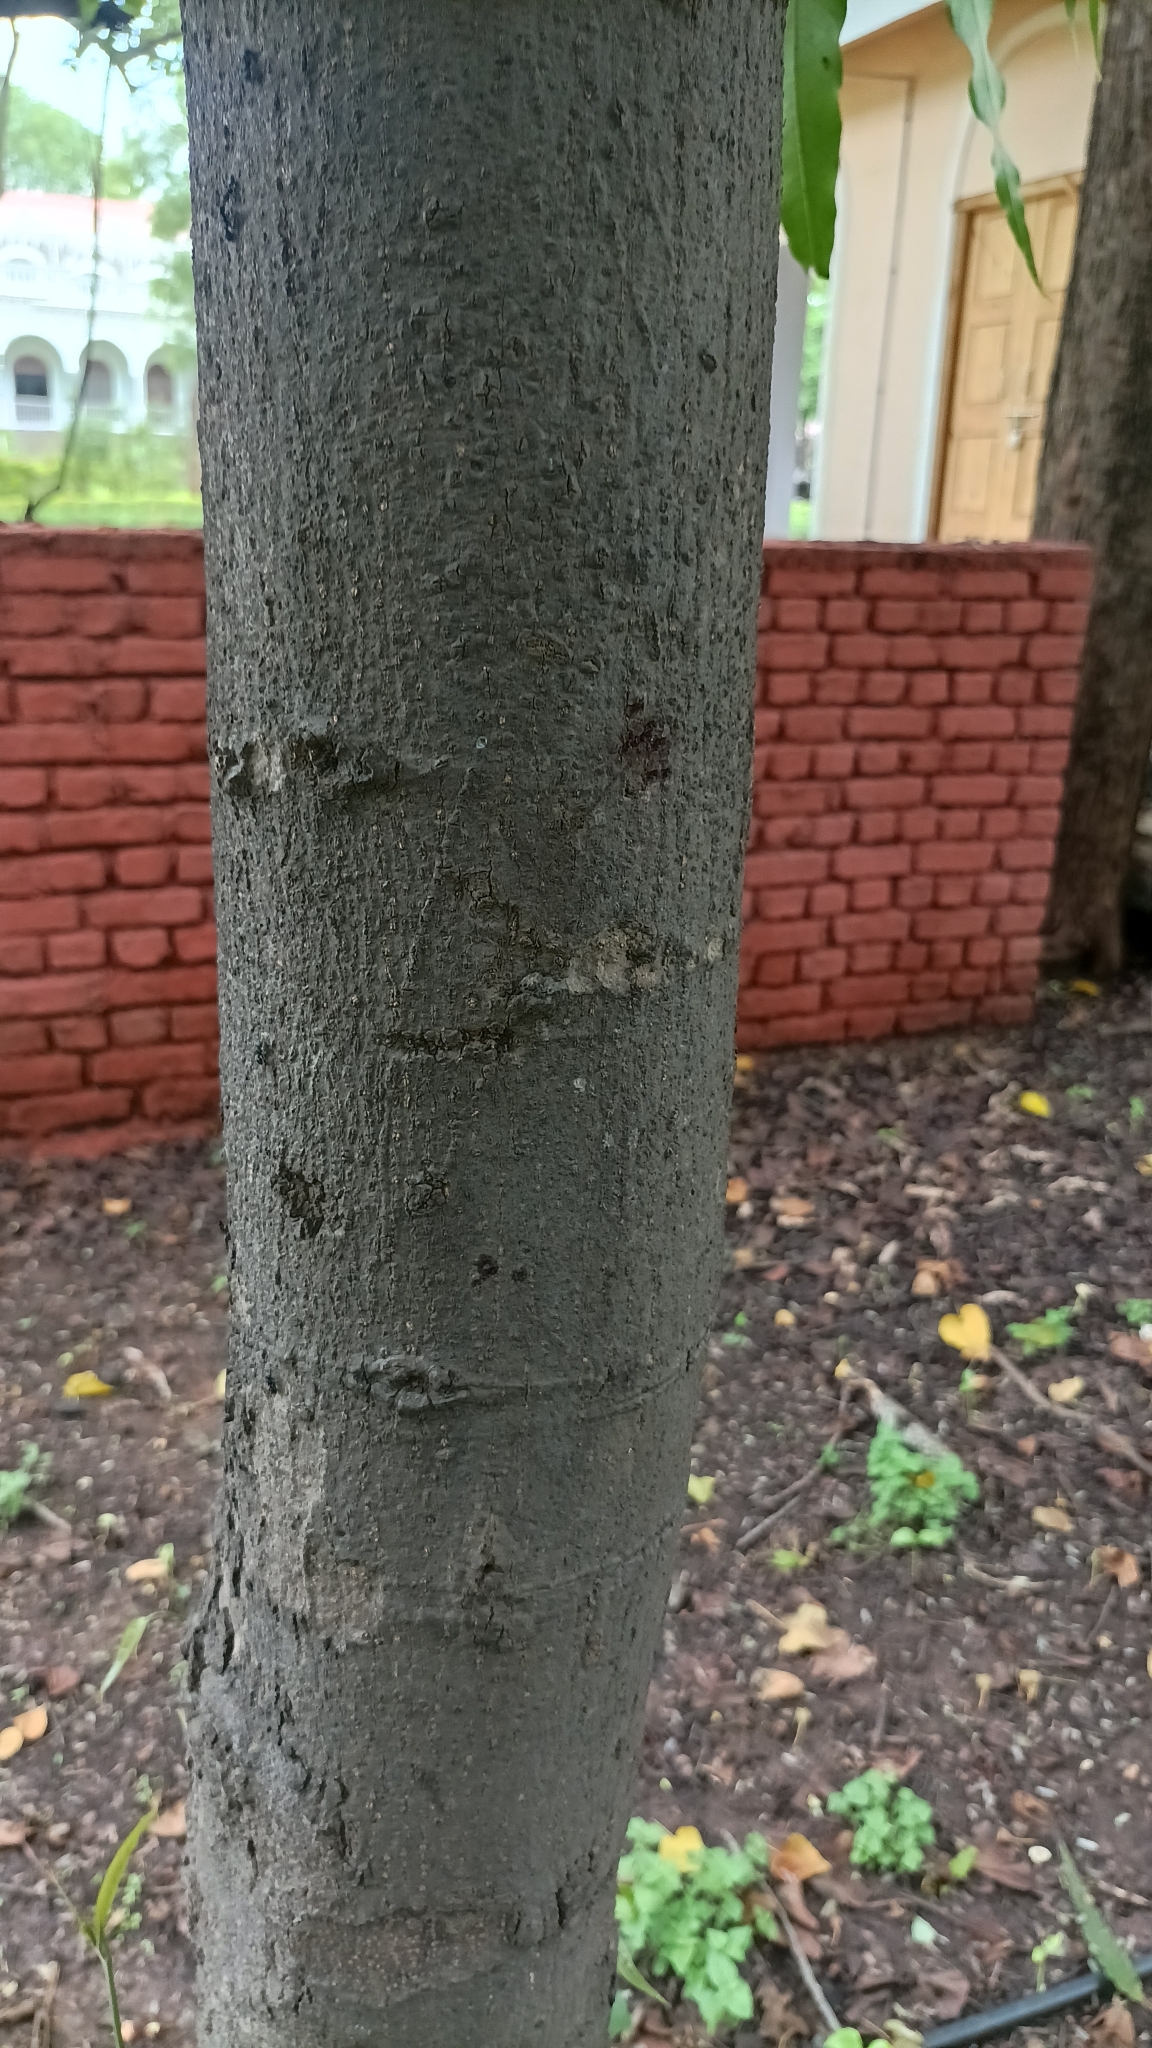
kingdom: Plantae
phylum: Tracheophyta
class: Magnoliopsida
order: Magnoliales
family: Annonaceae
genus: Polyalthia
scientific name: Polyalthia longifolia
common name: Cemetery-tree
